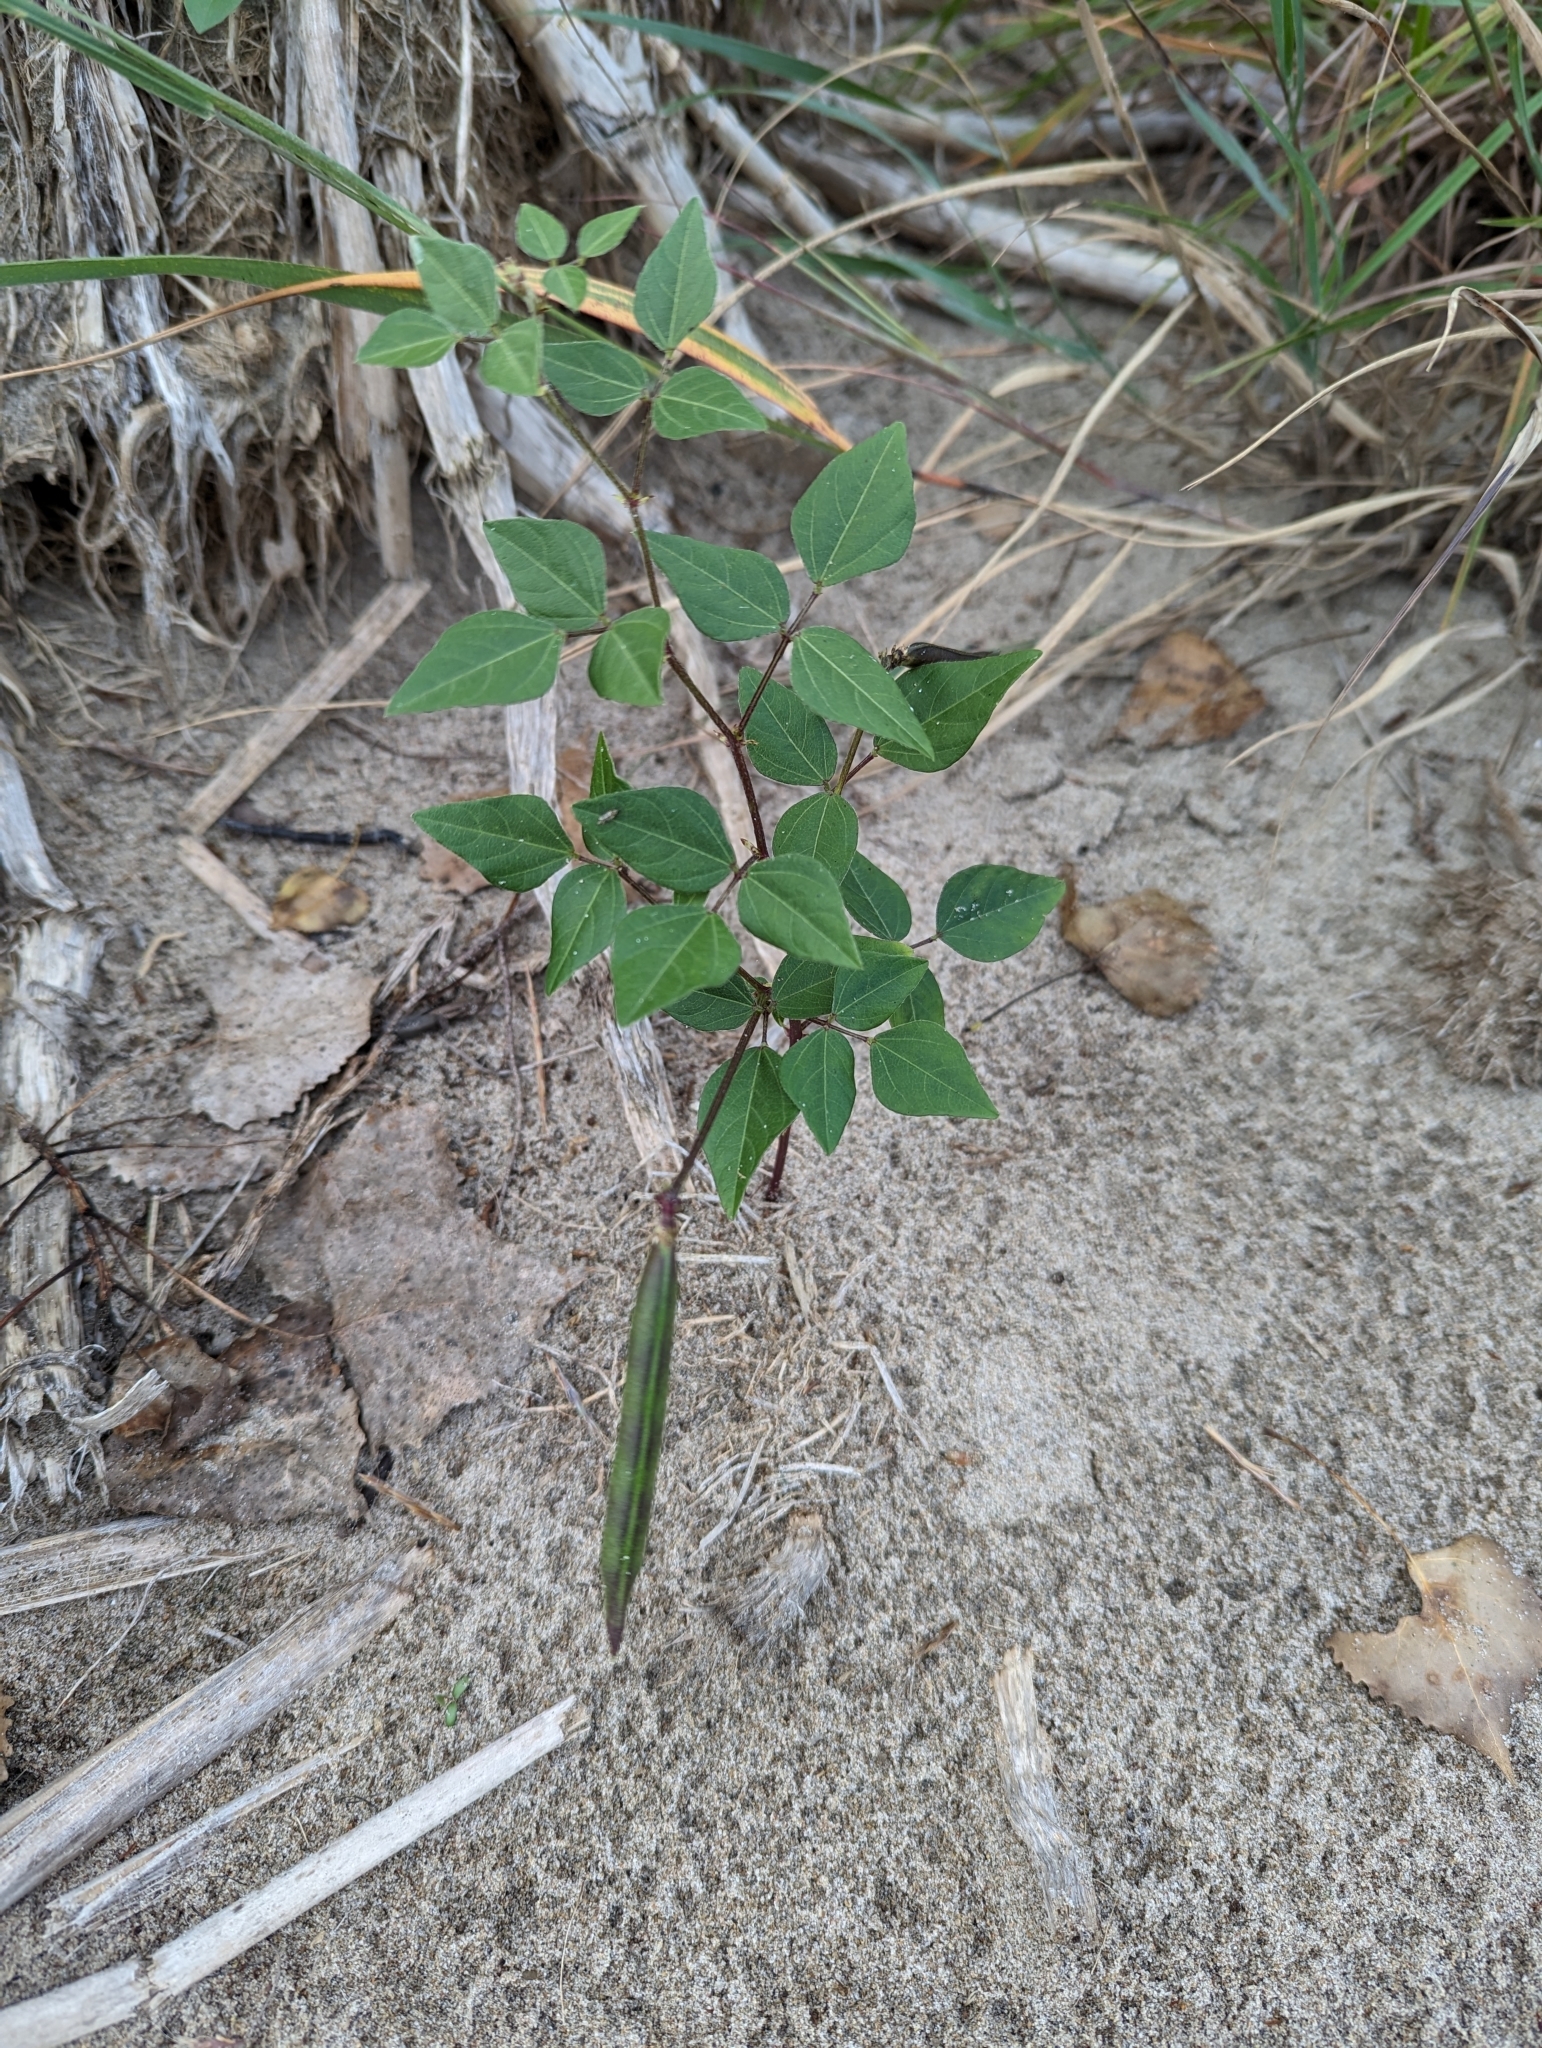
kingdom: Plantae
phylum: Tracheophyta
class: Magnoliopsida
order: Fabales
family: Fabaceae
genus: Strophostyles
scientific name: Strophostyles helvola
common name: Trailing wild bean
